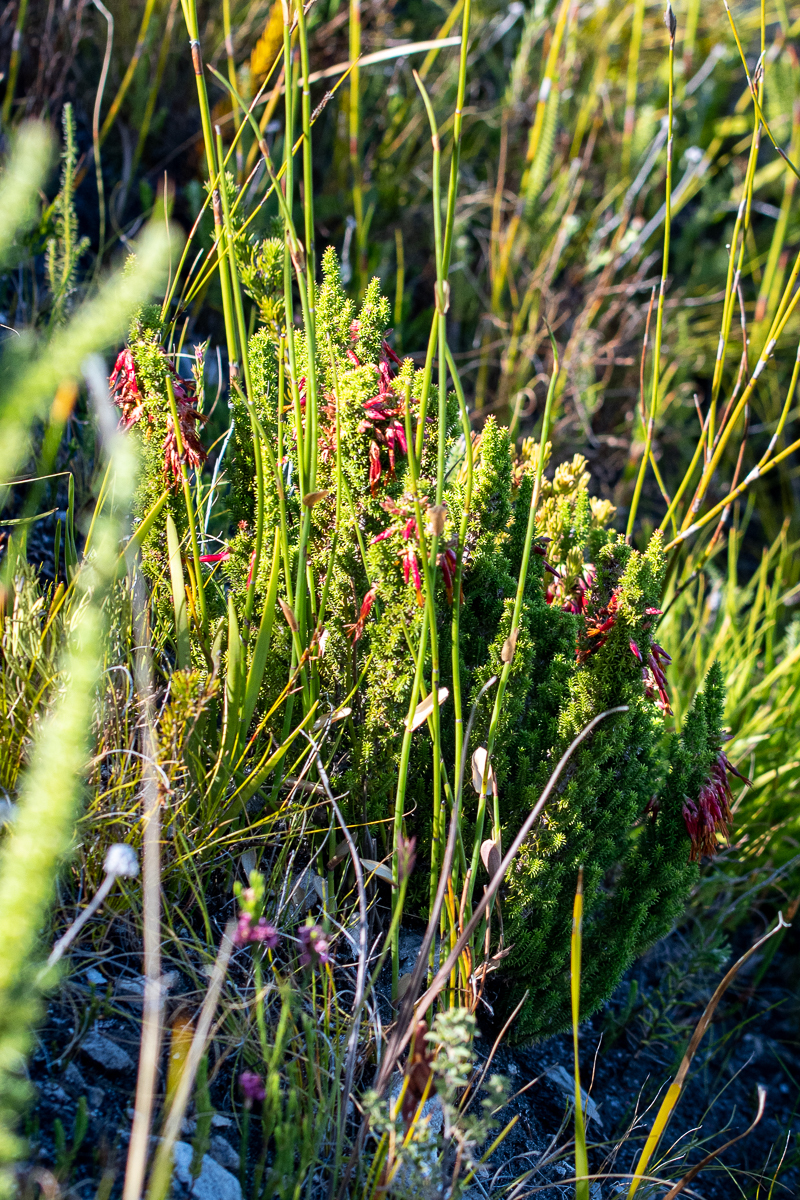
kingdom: Plantae
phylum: Tracheophyta
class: Magnoliopsida
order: Ericales
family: Ericaceae
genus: Erica
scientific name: Erica monadelphia
